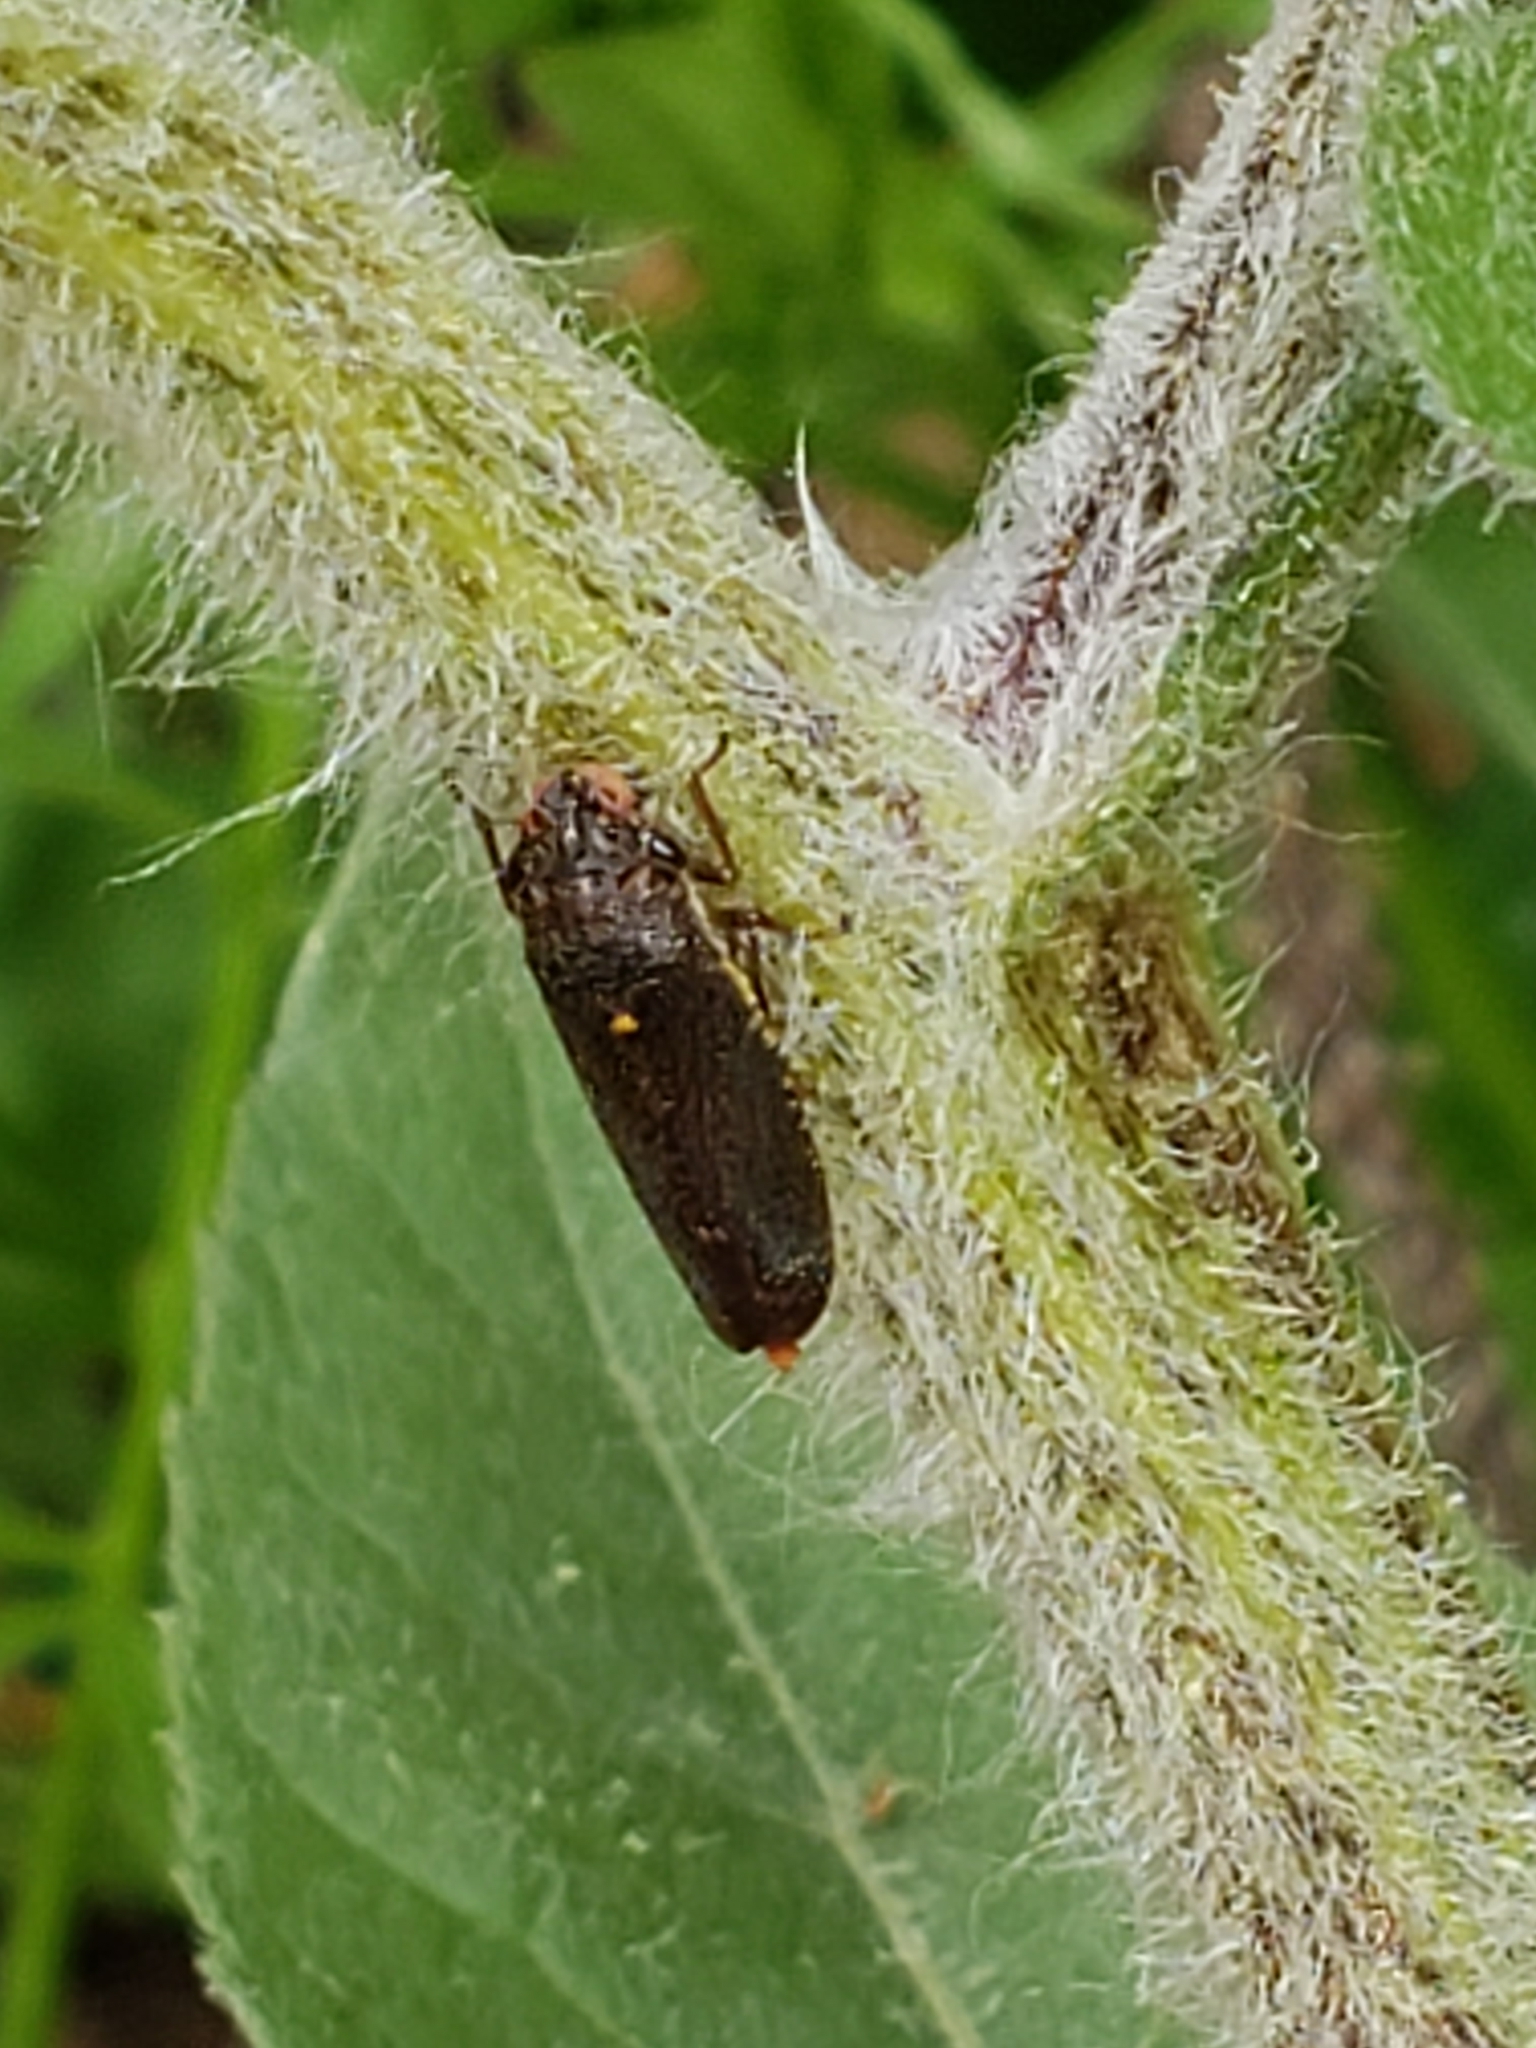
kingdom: Animalia
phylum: Arthropoda
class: Insecta
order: Hemiptera
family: Cicadellidae
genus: Paraulacizes
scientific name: Paraulacizes irrorata
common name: Speckled sharpshooter
